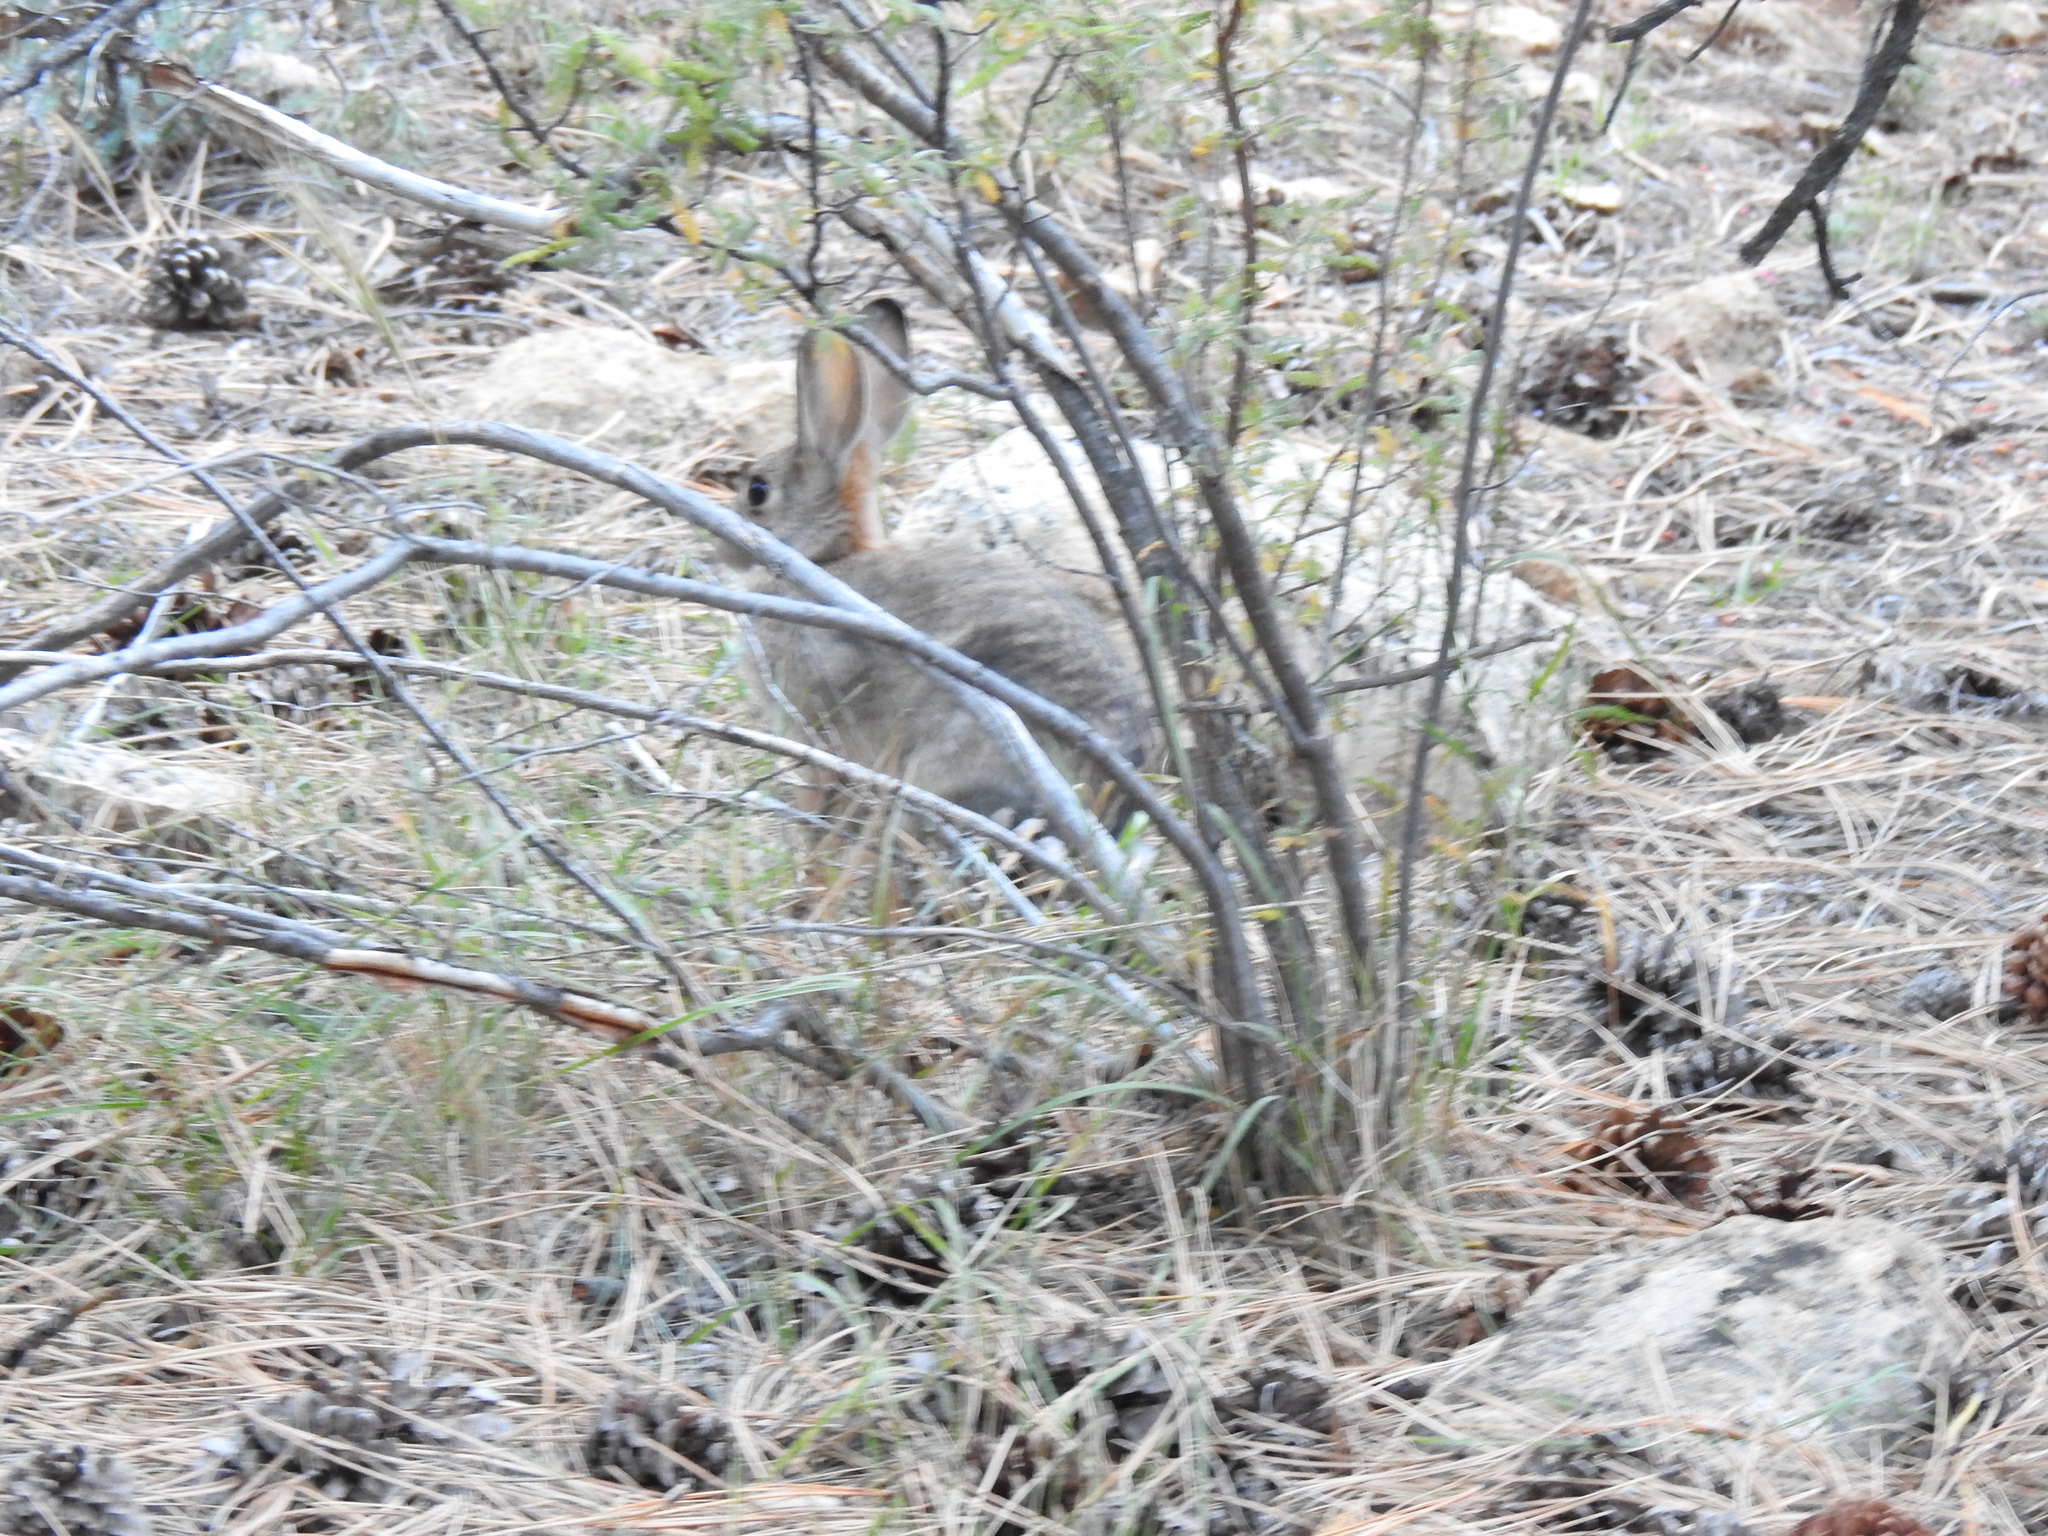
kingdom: Animalia
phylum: Chordata
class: Mammalia
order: Lagomorpha
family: Leporidae
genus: Sylvilagus
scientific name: Sylvilagus audubonii
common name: Desert cottontail
